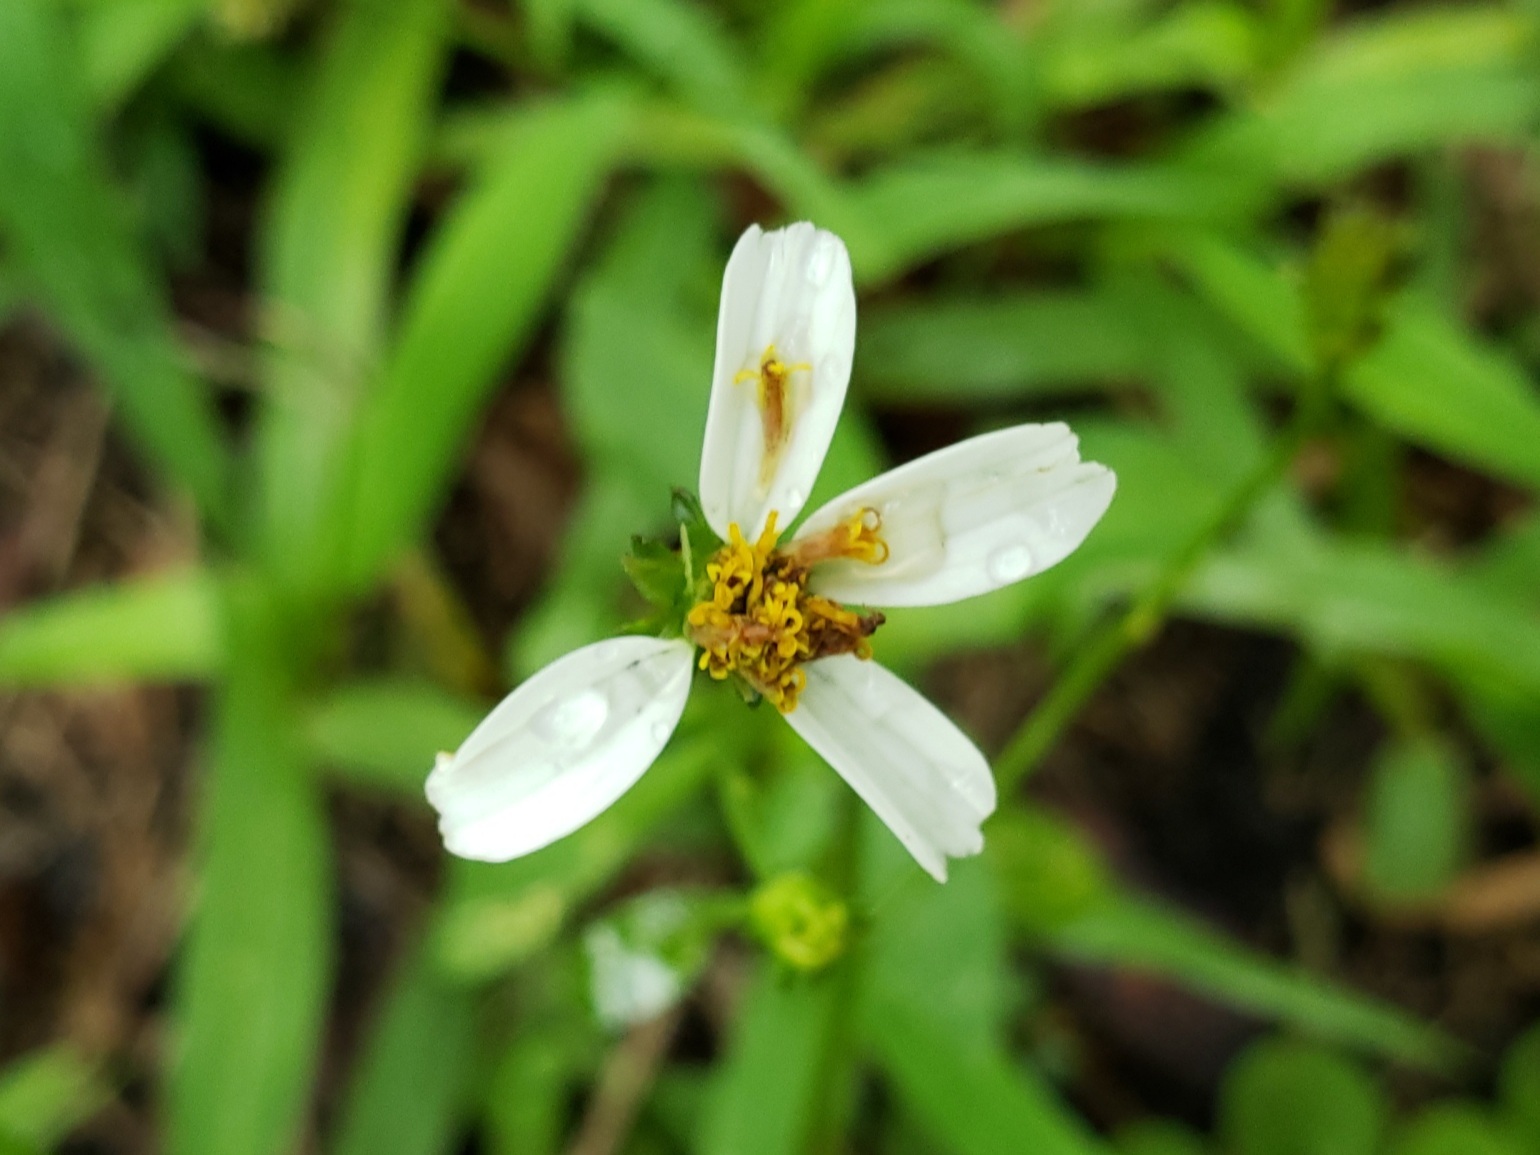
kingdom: Plantae
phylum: Tracheophyta
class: Magnoliopsida
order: Asterales
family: Asteraceae
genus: Bidens
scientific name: Bidens alba
